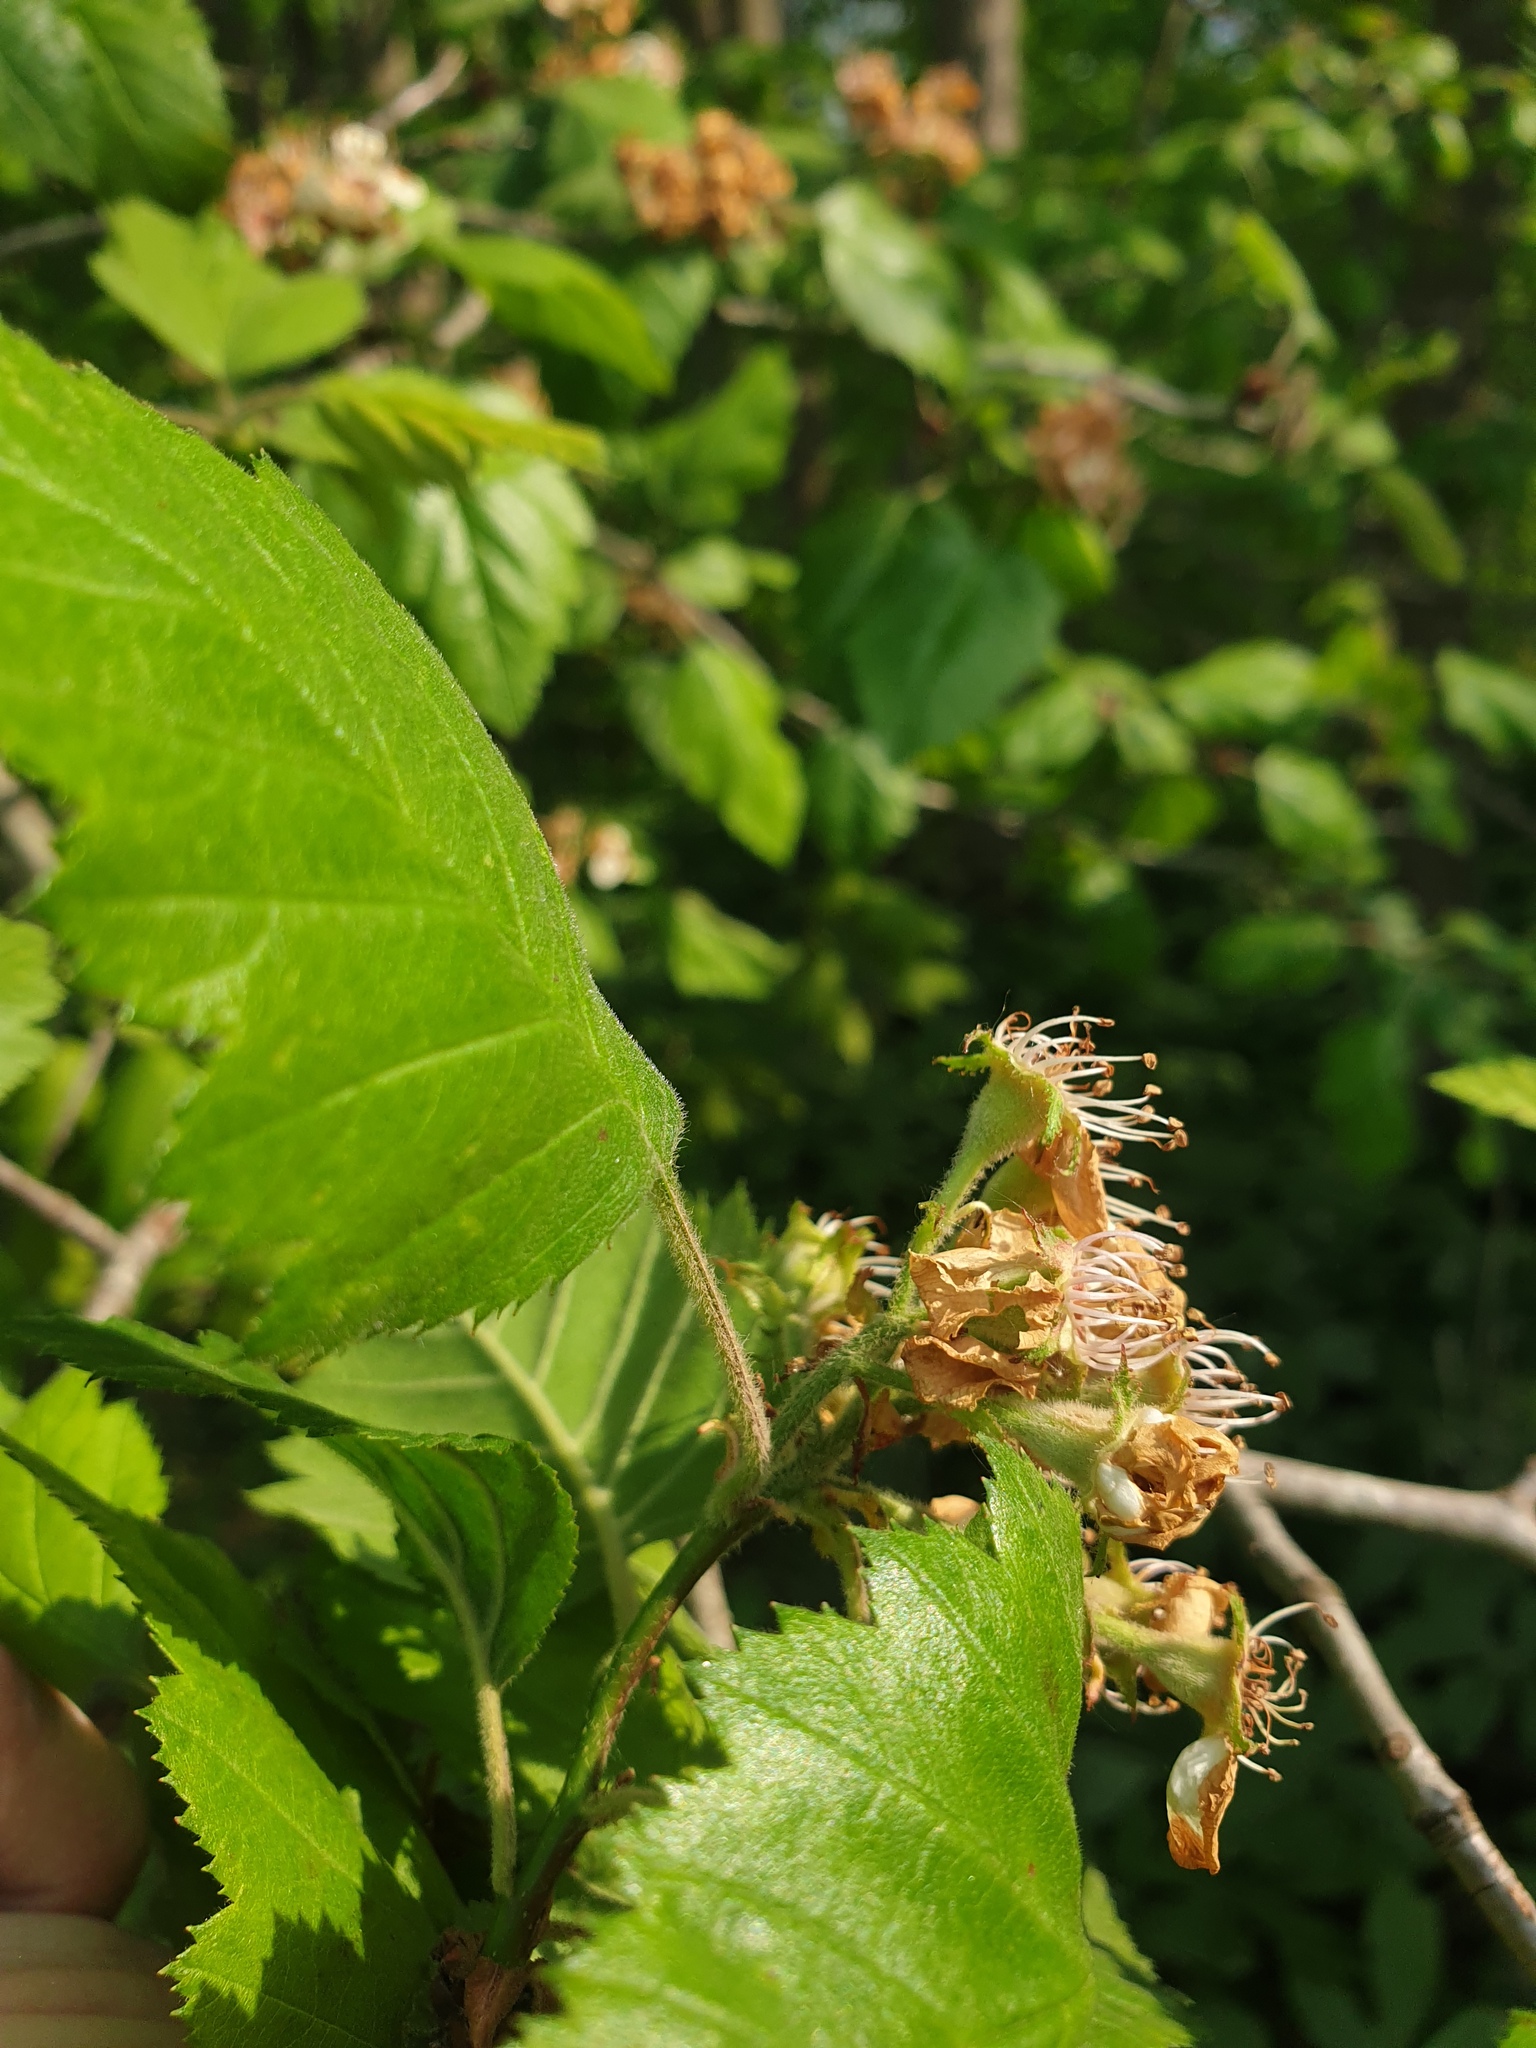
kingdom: Plantae
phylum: Tracheophyta
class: Magnoliopsida
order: Rosales
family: Rosaceae
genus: Crataegus
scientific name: Crataegus mollis
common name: Downy hawthorn
